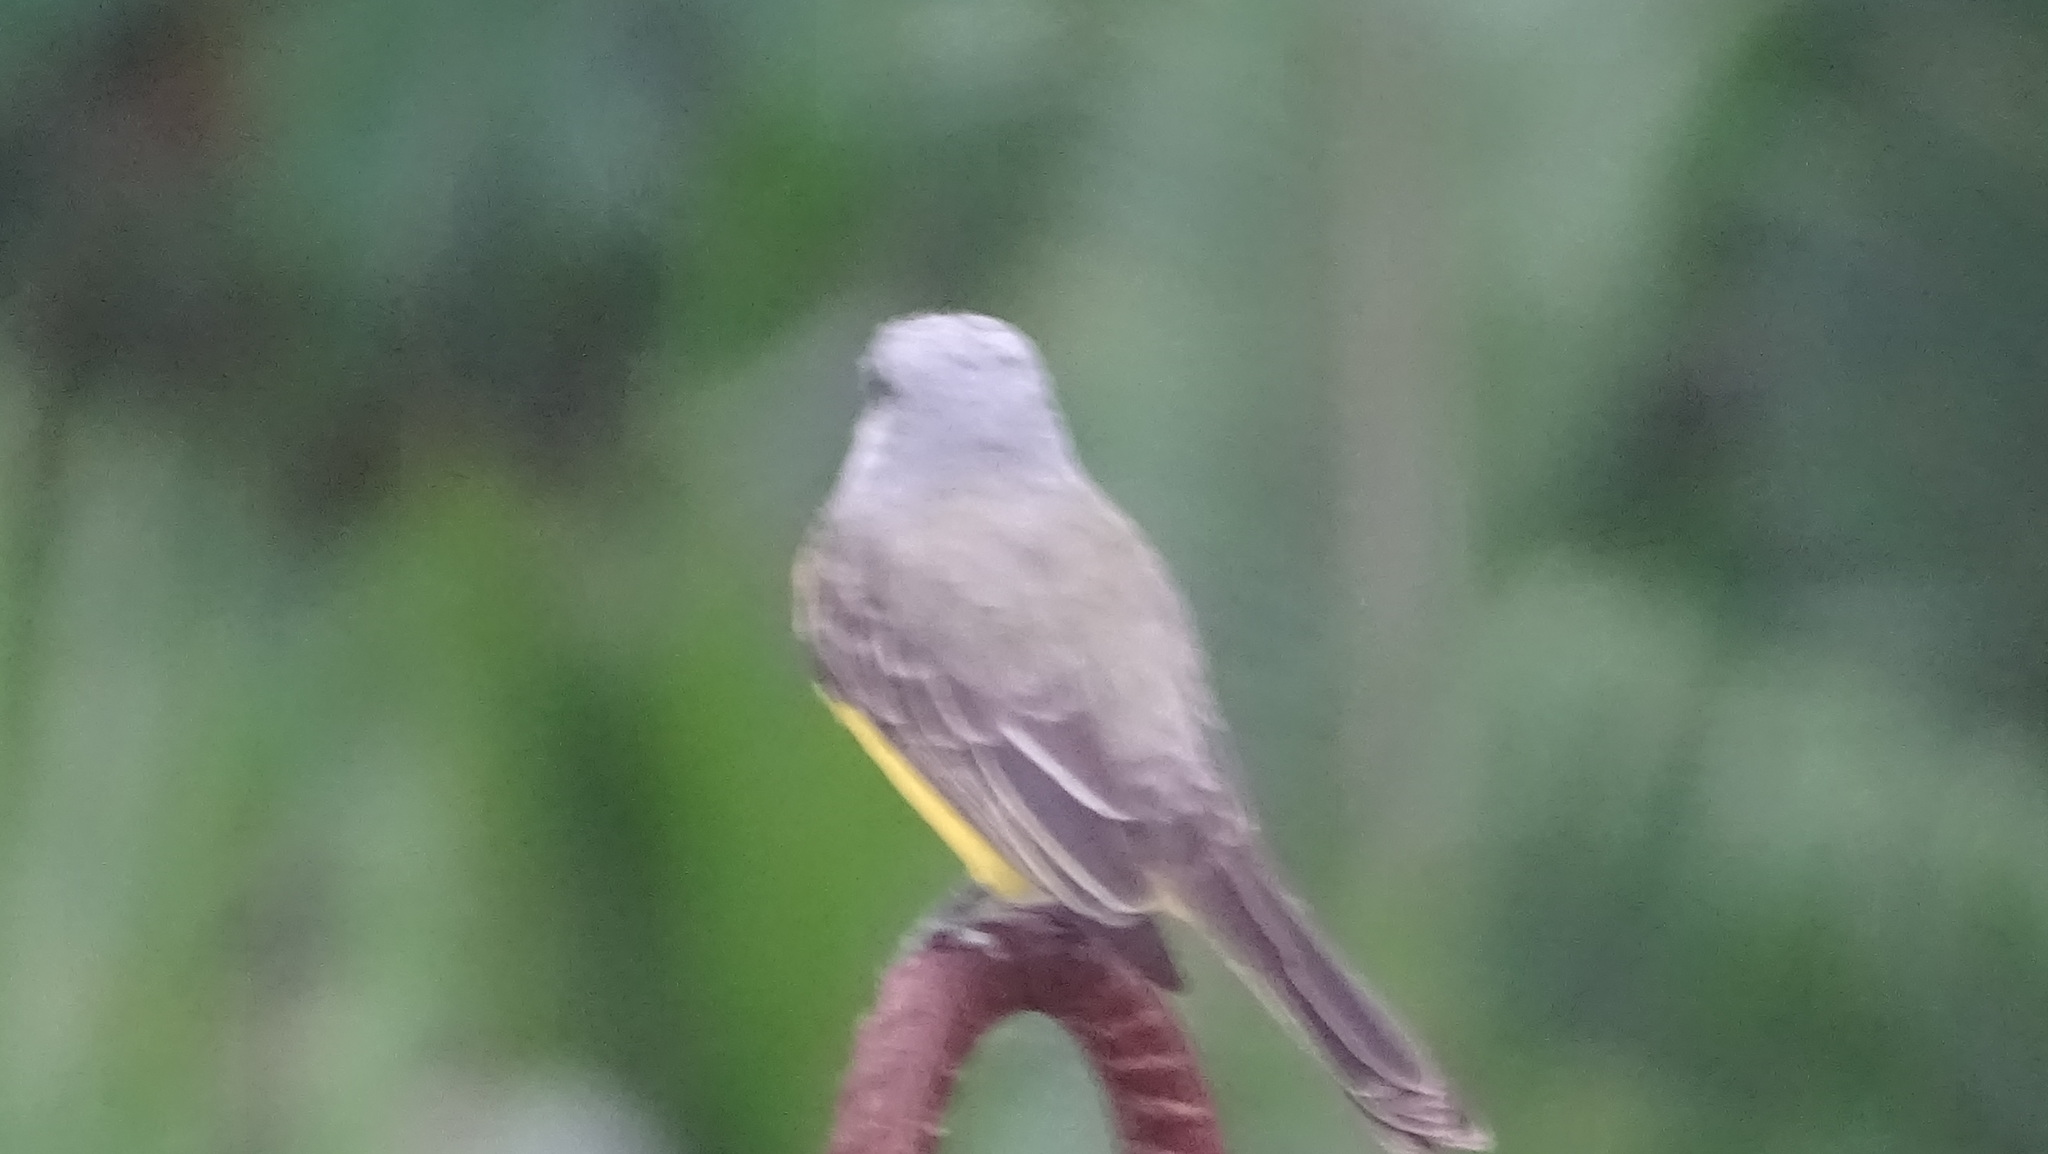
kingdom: Animalia
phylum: Chordata
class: Aves
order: Passeriformes
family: Tyrannidae
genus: Tyrannus
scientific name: Tyrannus melancholicus
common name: Tropical kingbird
